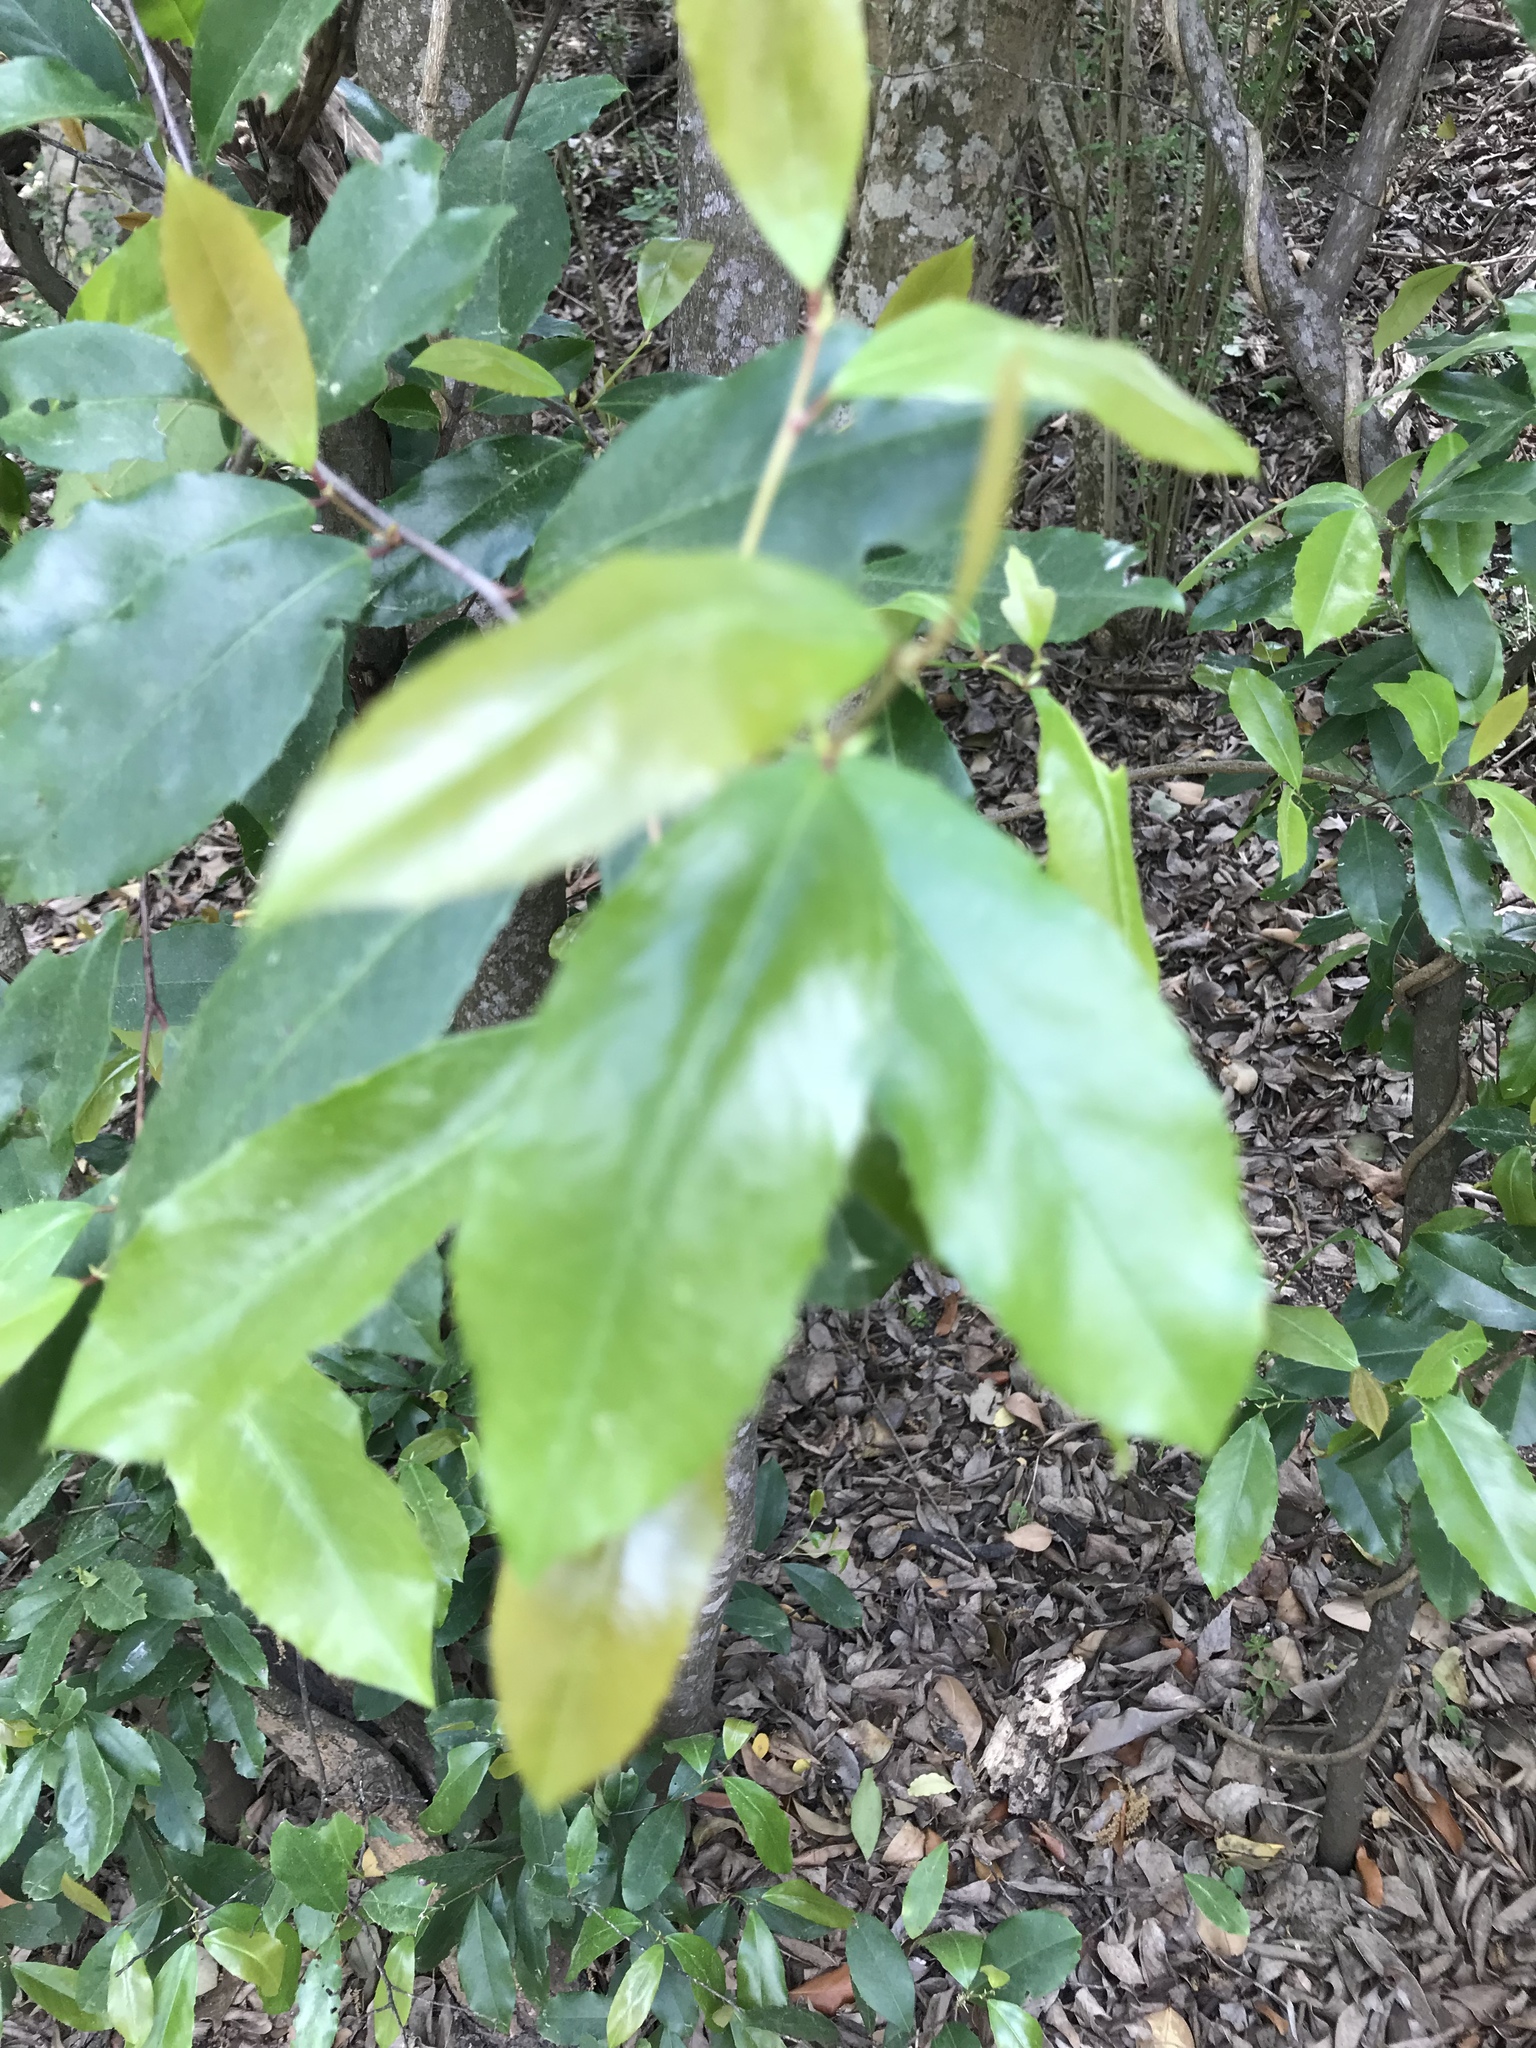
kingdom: Plantae
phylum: Tracheophyta
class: Magnoliopsida
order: Rosales
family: Rosaceae
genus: Prunus
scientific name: Prunus caroliniana
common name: Carolina laurel cherry
